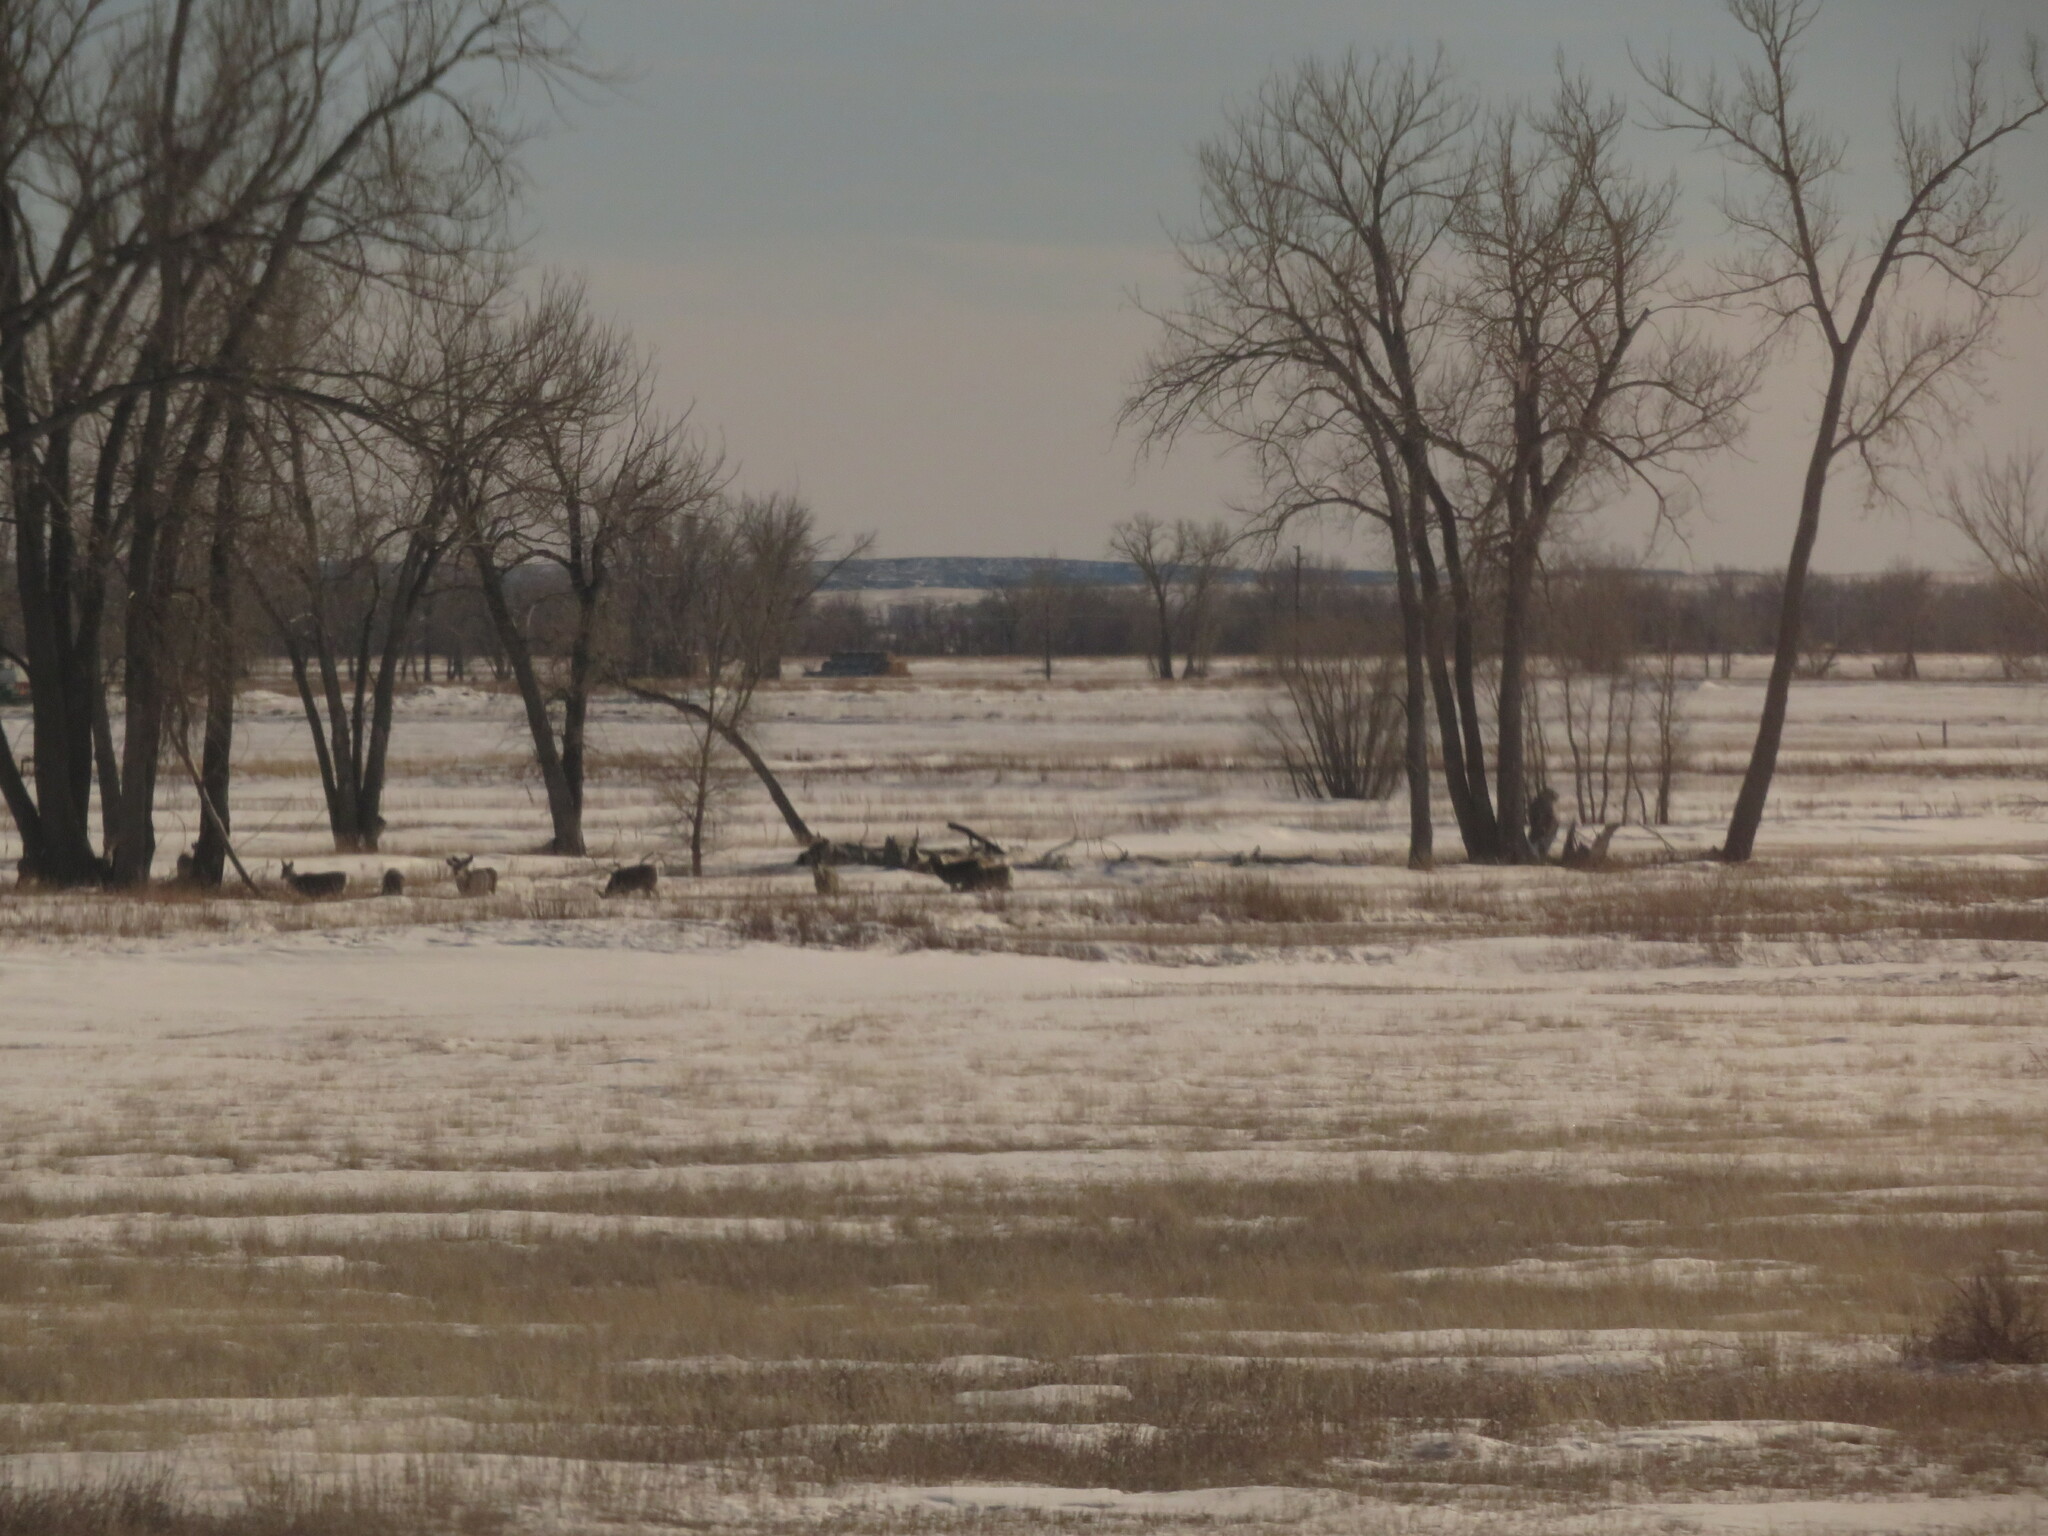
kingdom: Animalia
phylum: Chordata
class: Mammalia
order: Artiodactyla
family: Cervidae
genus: Odocoileus
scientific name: Odocoileus hemionus
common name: Mule deer
